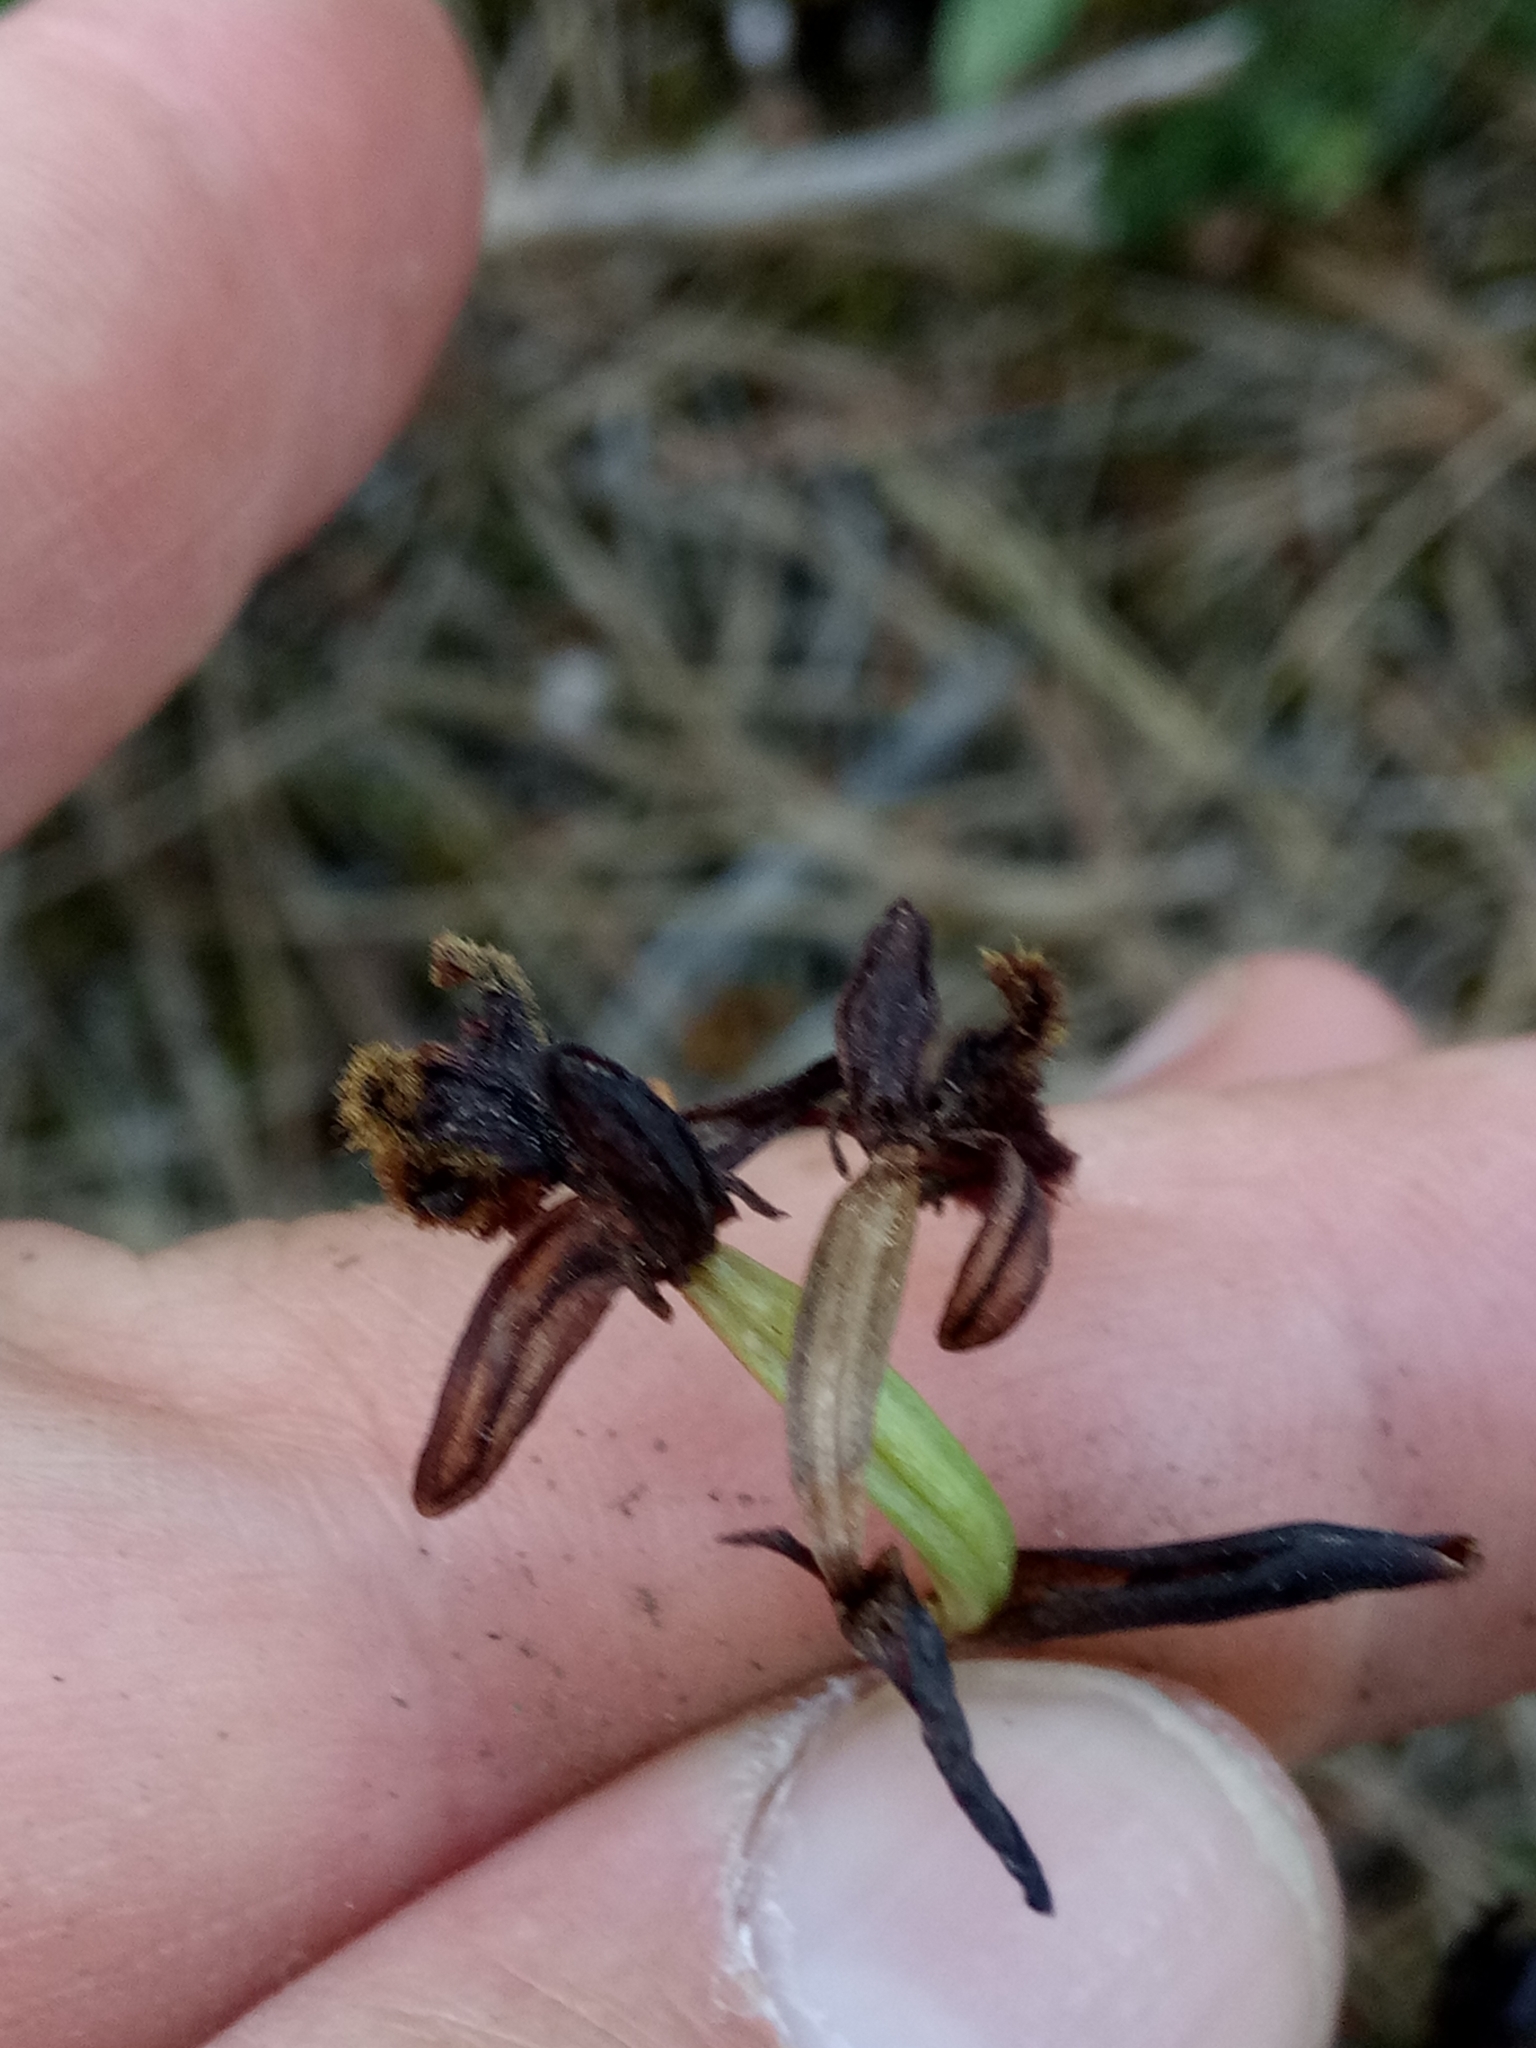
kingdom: Plantae
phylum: Tracheophyta
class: Liliopsida
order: Asparagales
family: Orchidaceae
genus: Ophrys
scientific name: Ophrys speculum
